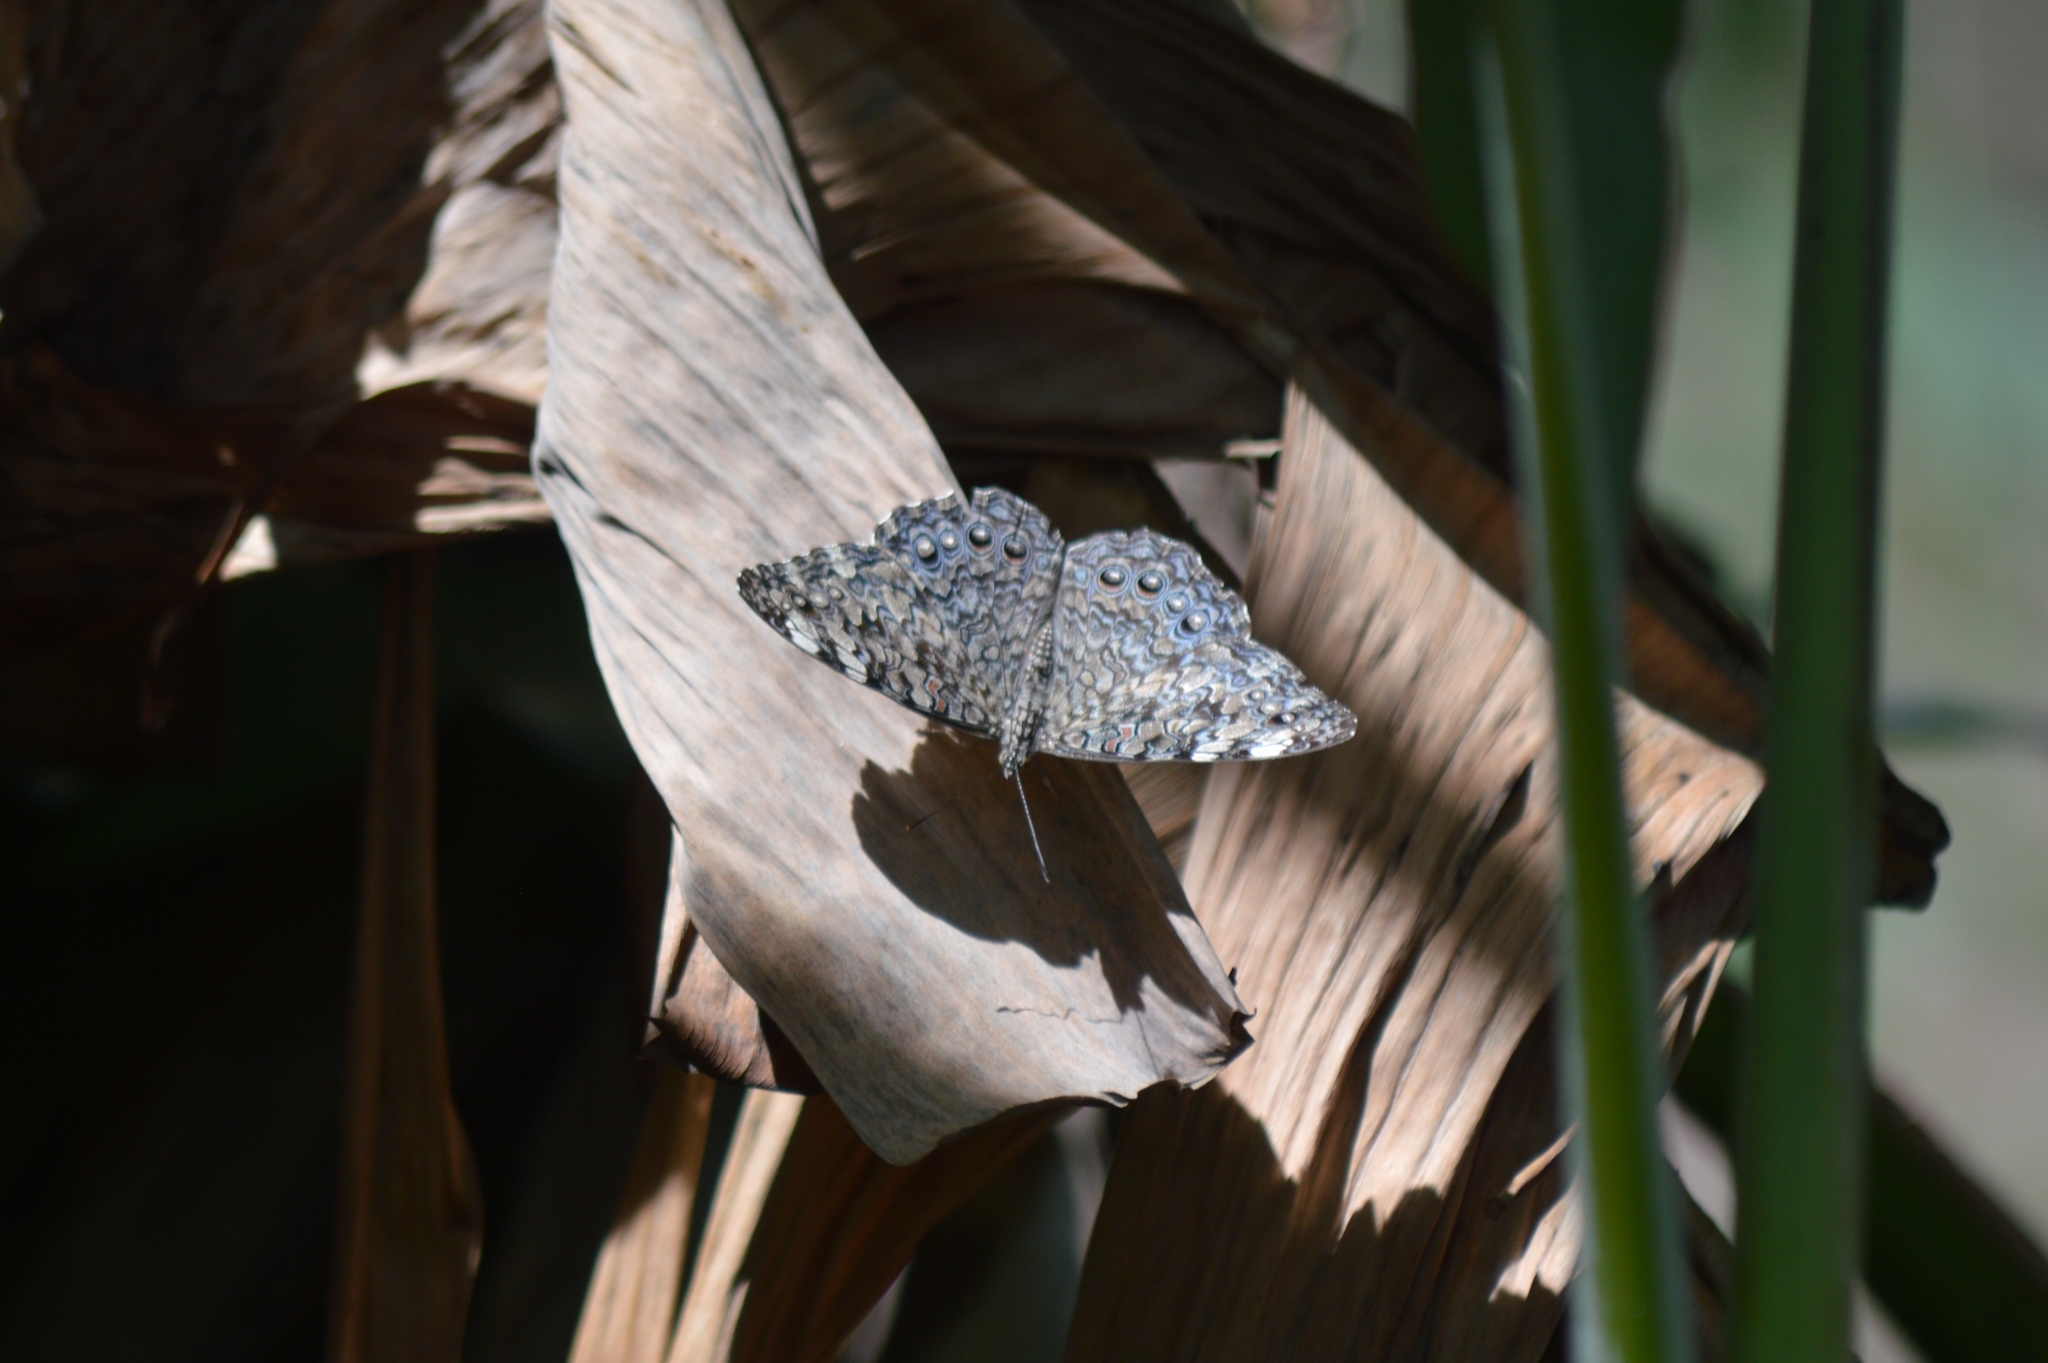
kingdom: Animalia
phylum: Arthropoda
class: Insecta
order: Lepidoptera
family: Nymphalidae
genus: Hamadryas
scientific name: Hamadryas feronia
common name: Variable cracker
